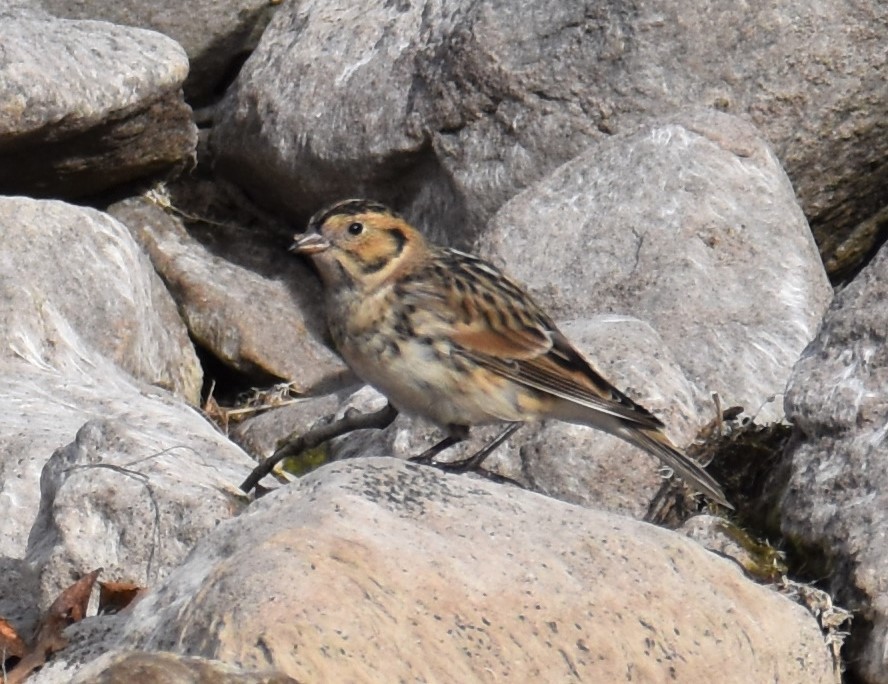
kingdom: Animalia
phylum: Chordata
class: Aves
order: Passeriformes
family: Calcariidae
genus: Calcarius
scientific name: Calcarius lapponicus
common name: Lapland longspur
